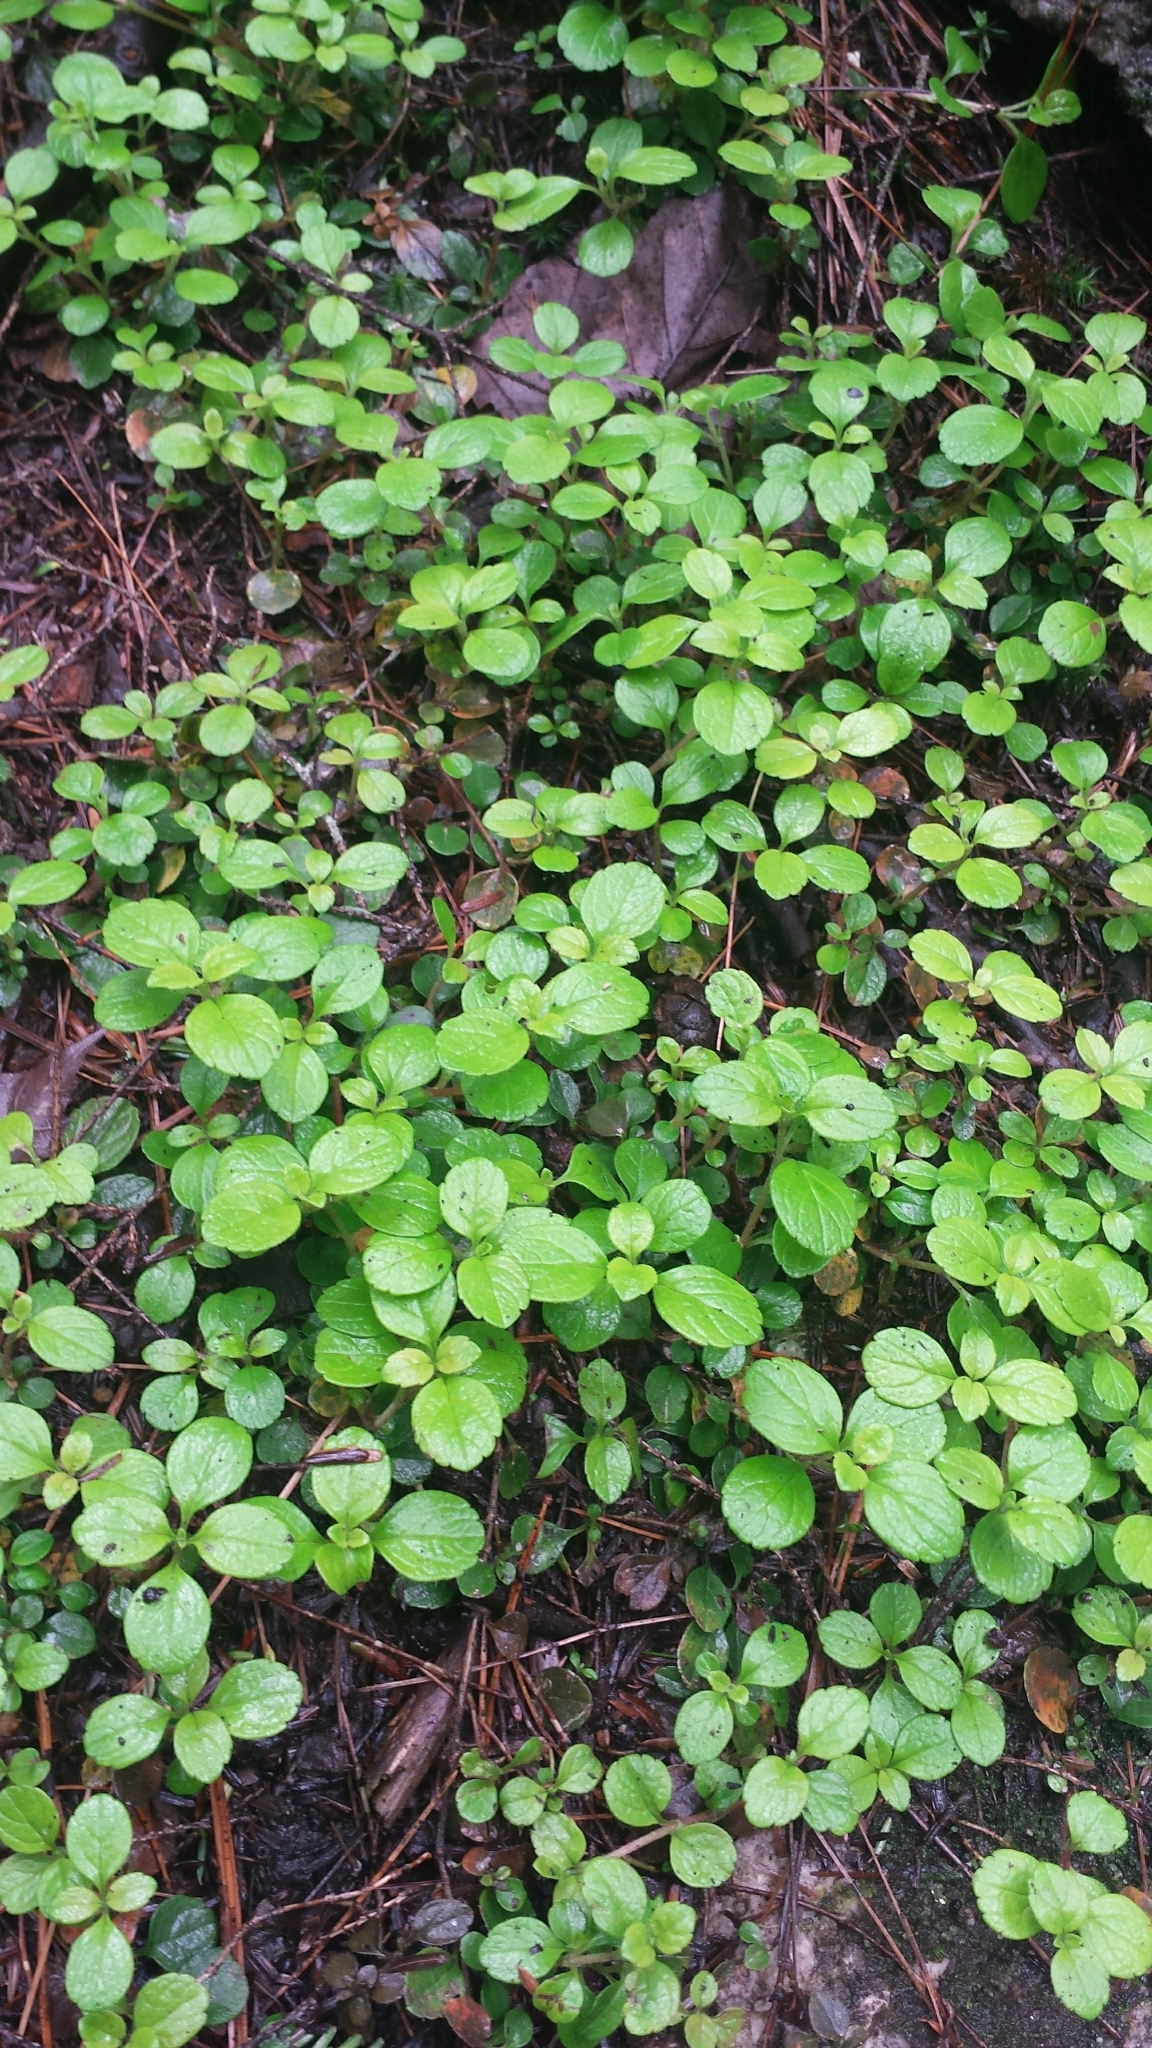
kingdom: Plantae
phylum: Tracheophyta
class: Magnoliopsida
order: Dipsacales
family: Caprifoliaceae
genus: Linnaea
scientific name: Linnaea borealis
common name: Twinflower
